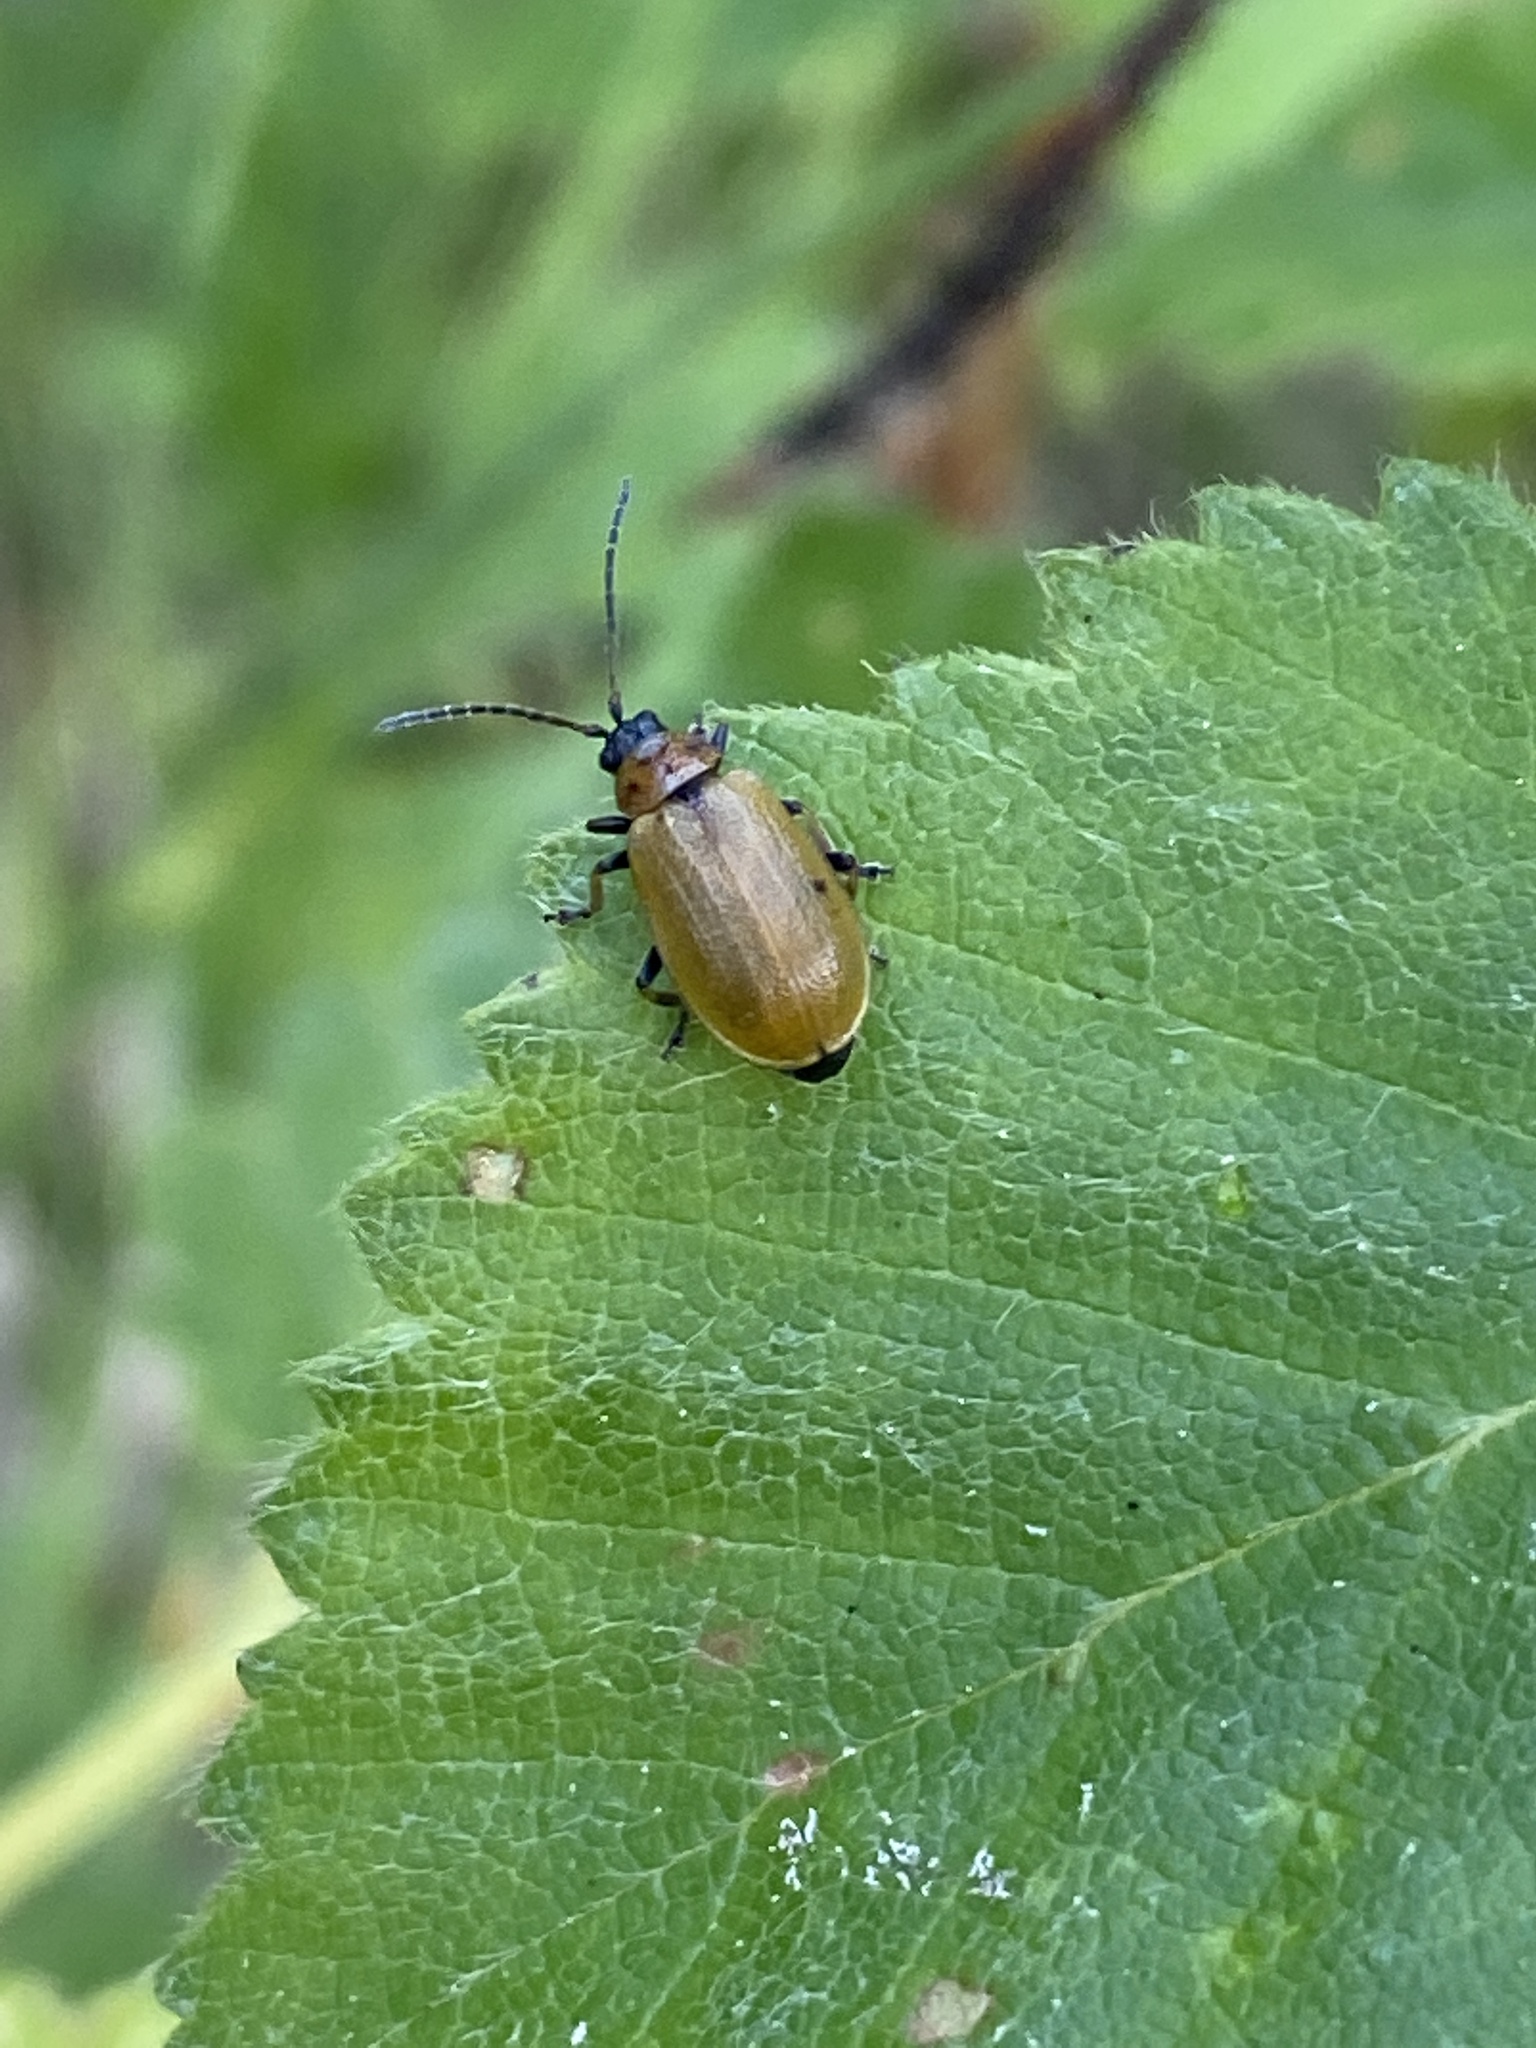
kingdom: Animalia
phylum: Arthropoda
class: Insecta
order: Coleoptera
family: Chrysomelidae
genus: Lochmaea
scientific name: Lochmaea caprea
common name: Willow leaf beetle
